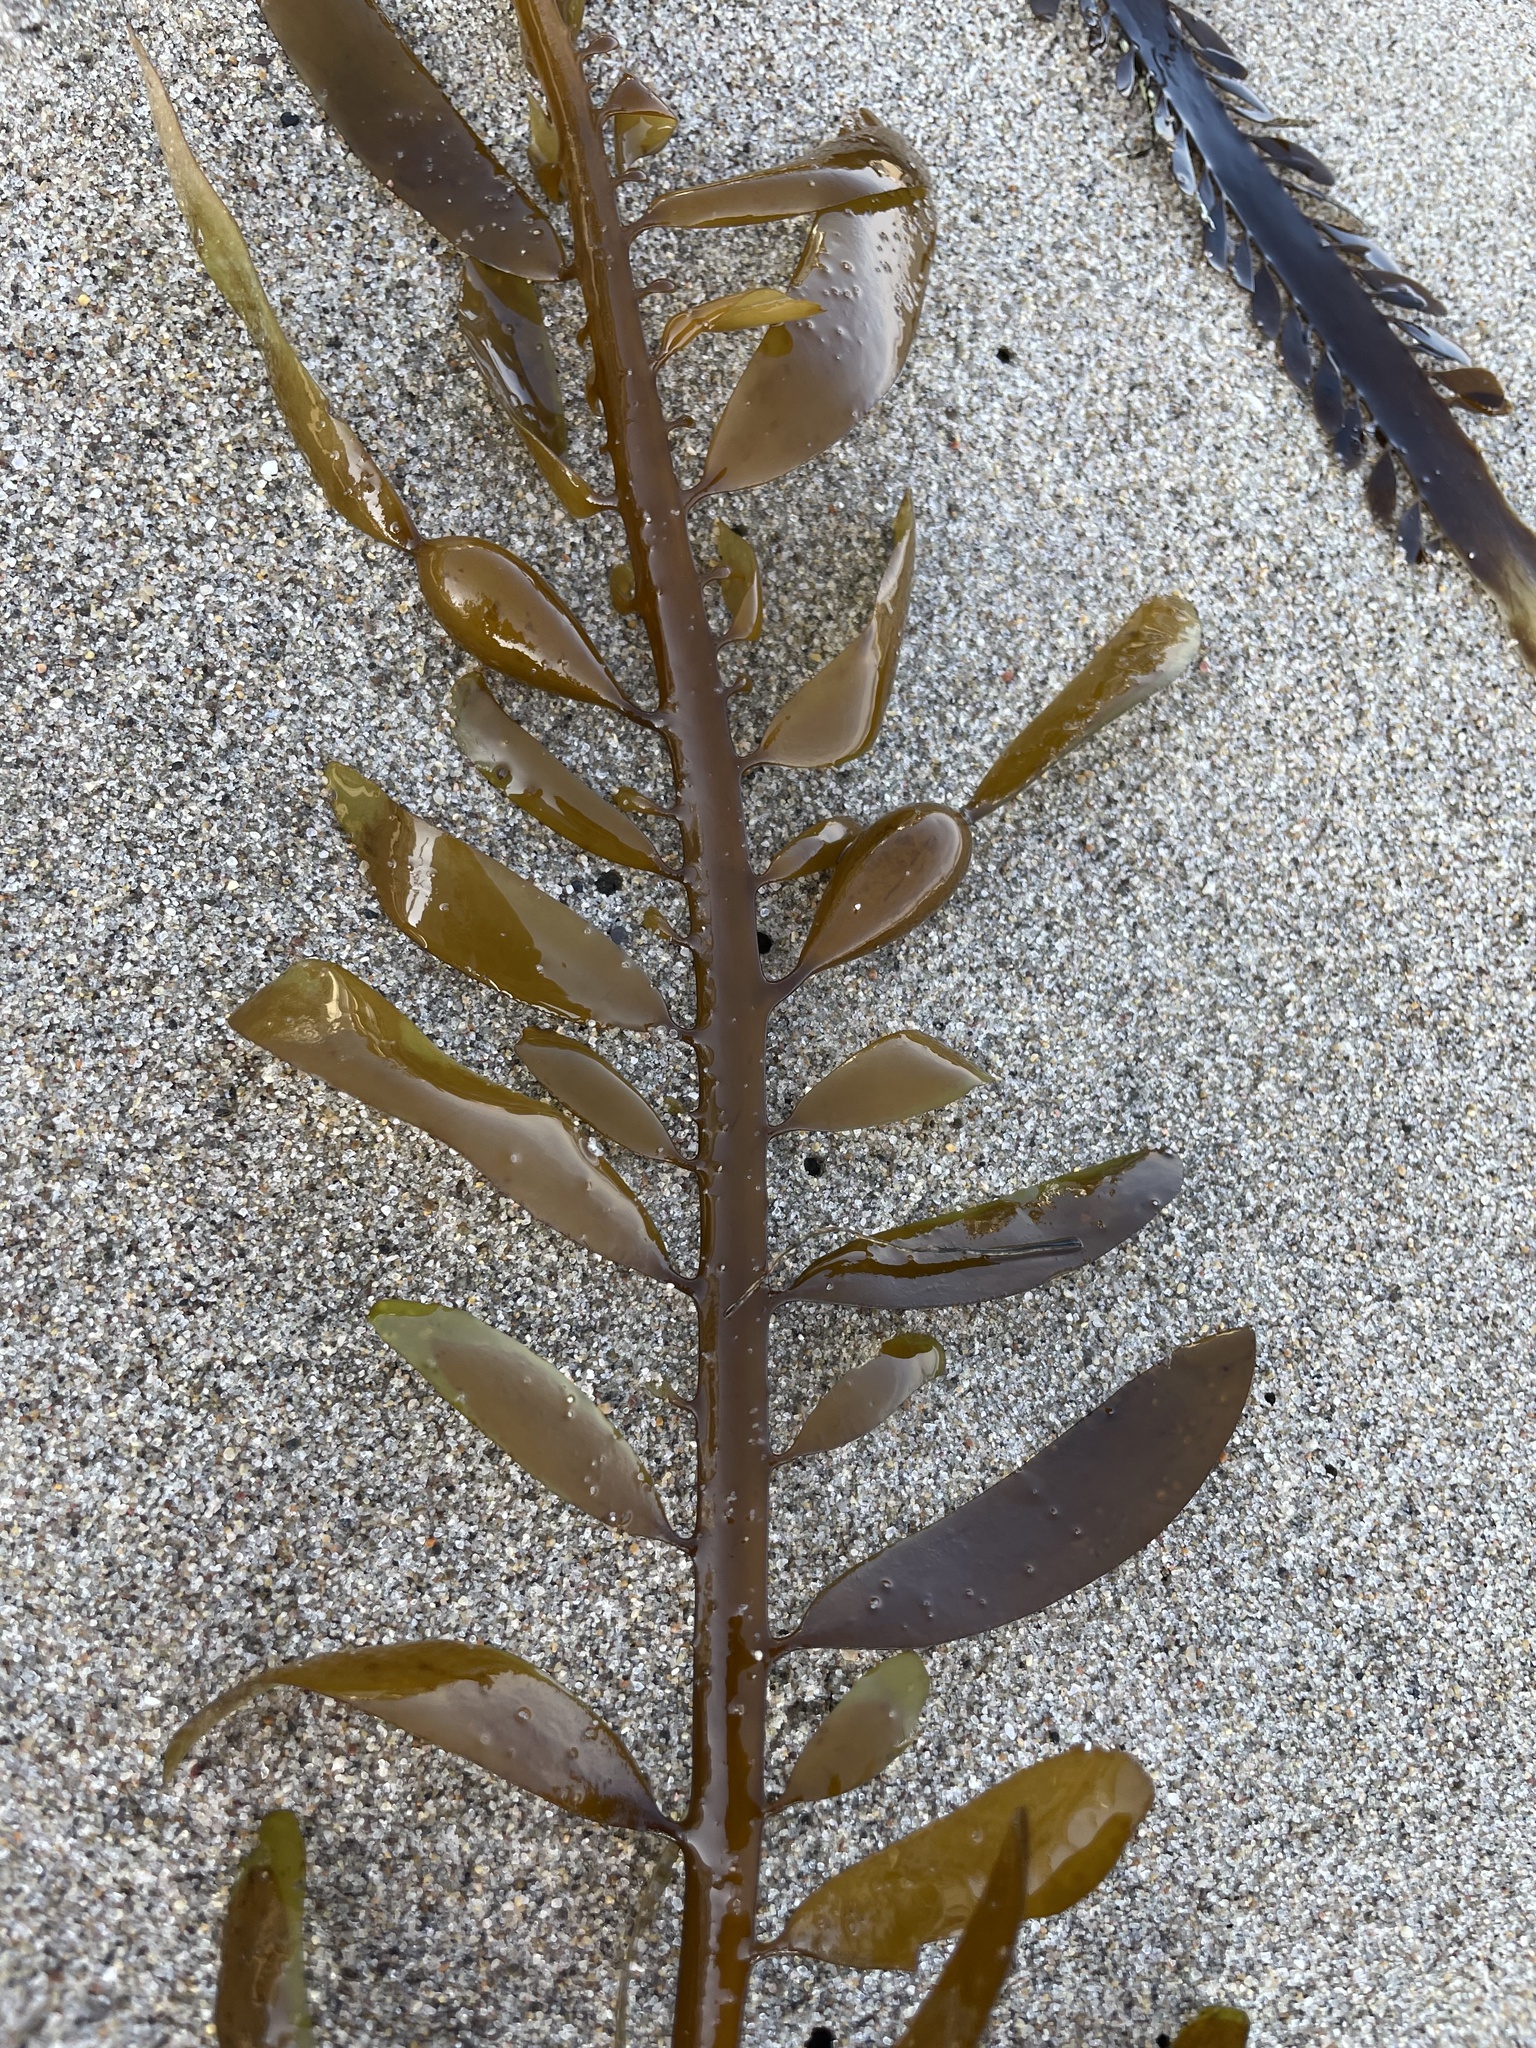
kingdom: Chromista
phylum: Ochrophyta
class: Phaeophyceae
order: Laminariales
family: Lessoniaceae
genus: Egregia
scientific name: Egregia menziesii
